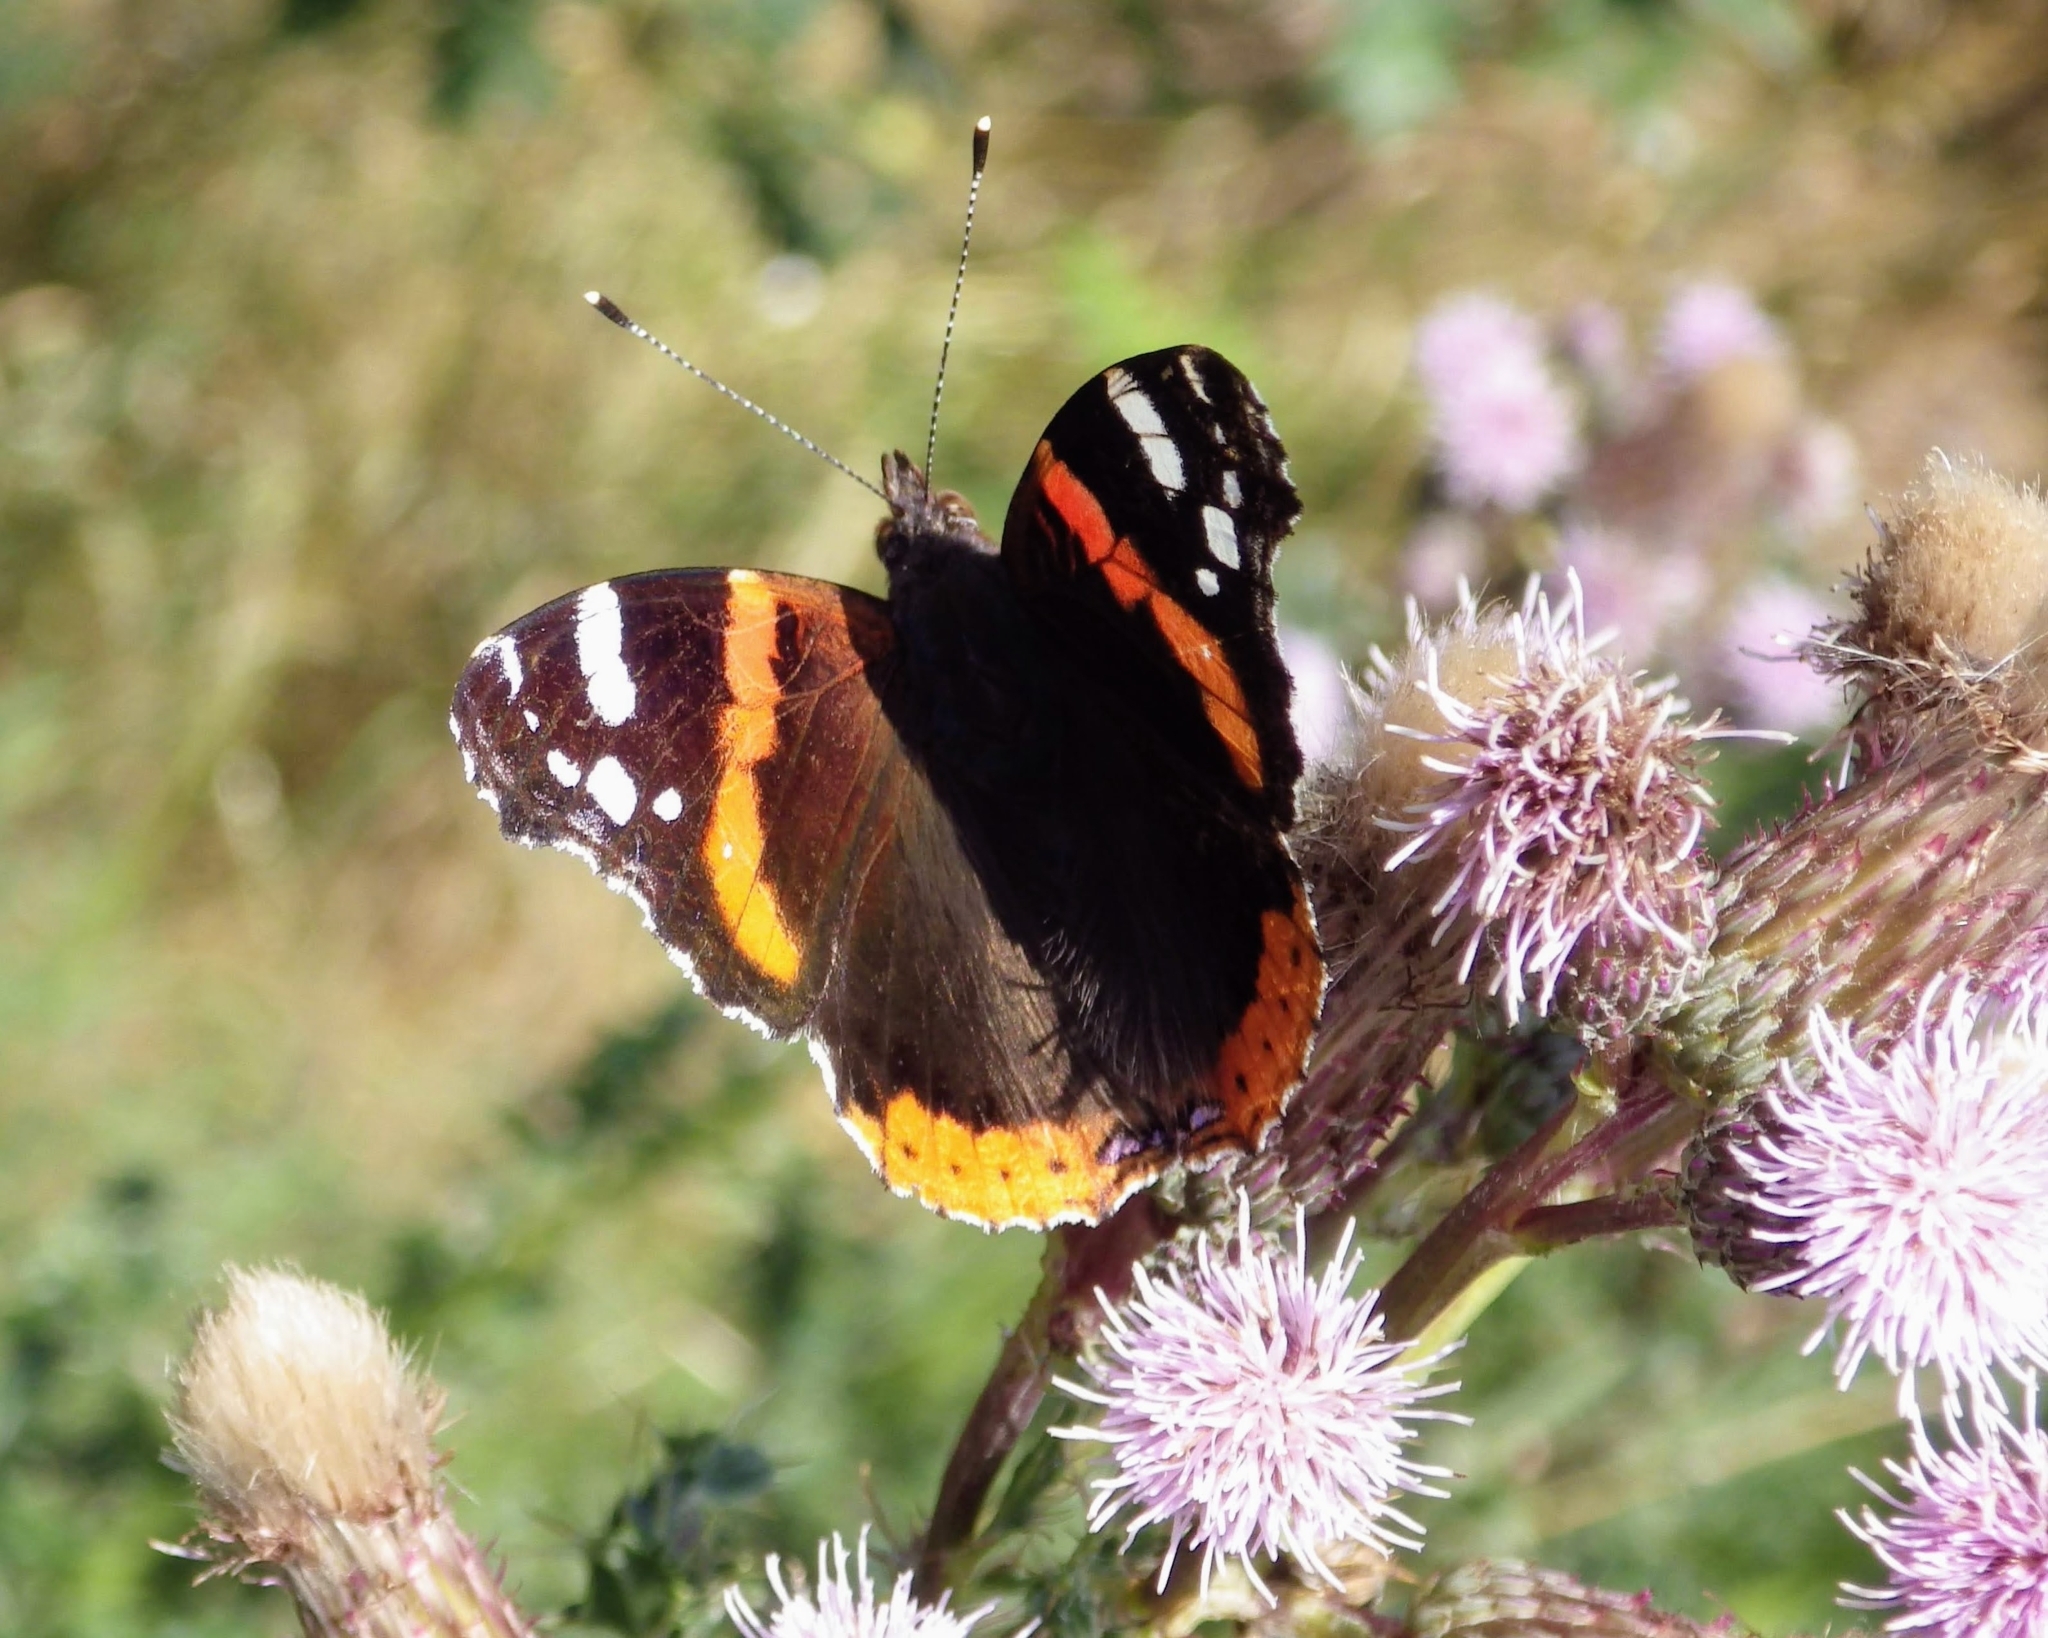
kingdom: Animalia
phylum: Arthropoda
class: Insecta
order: Lepidoptera
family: Nymphalidae
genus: Vanessa
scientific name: Vanessa atalanta
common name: Red admiral
